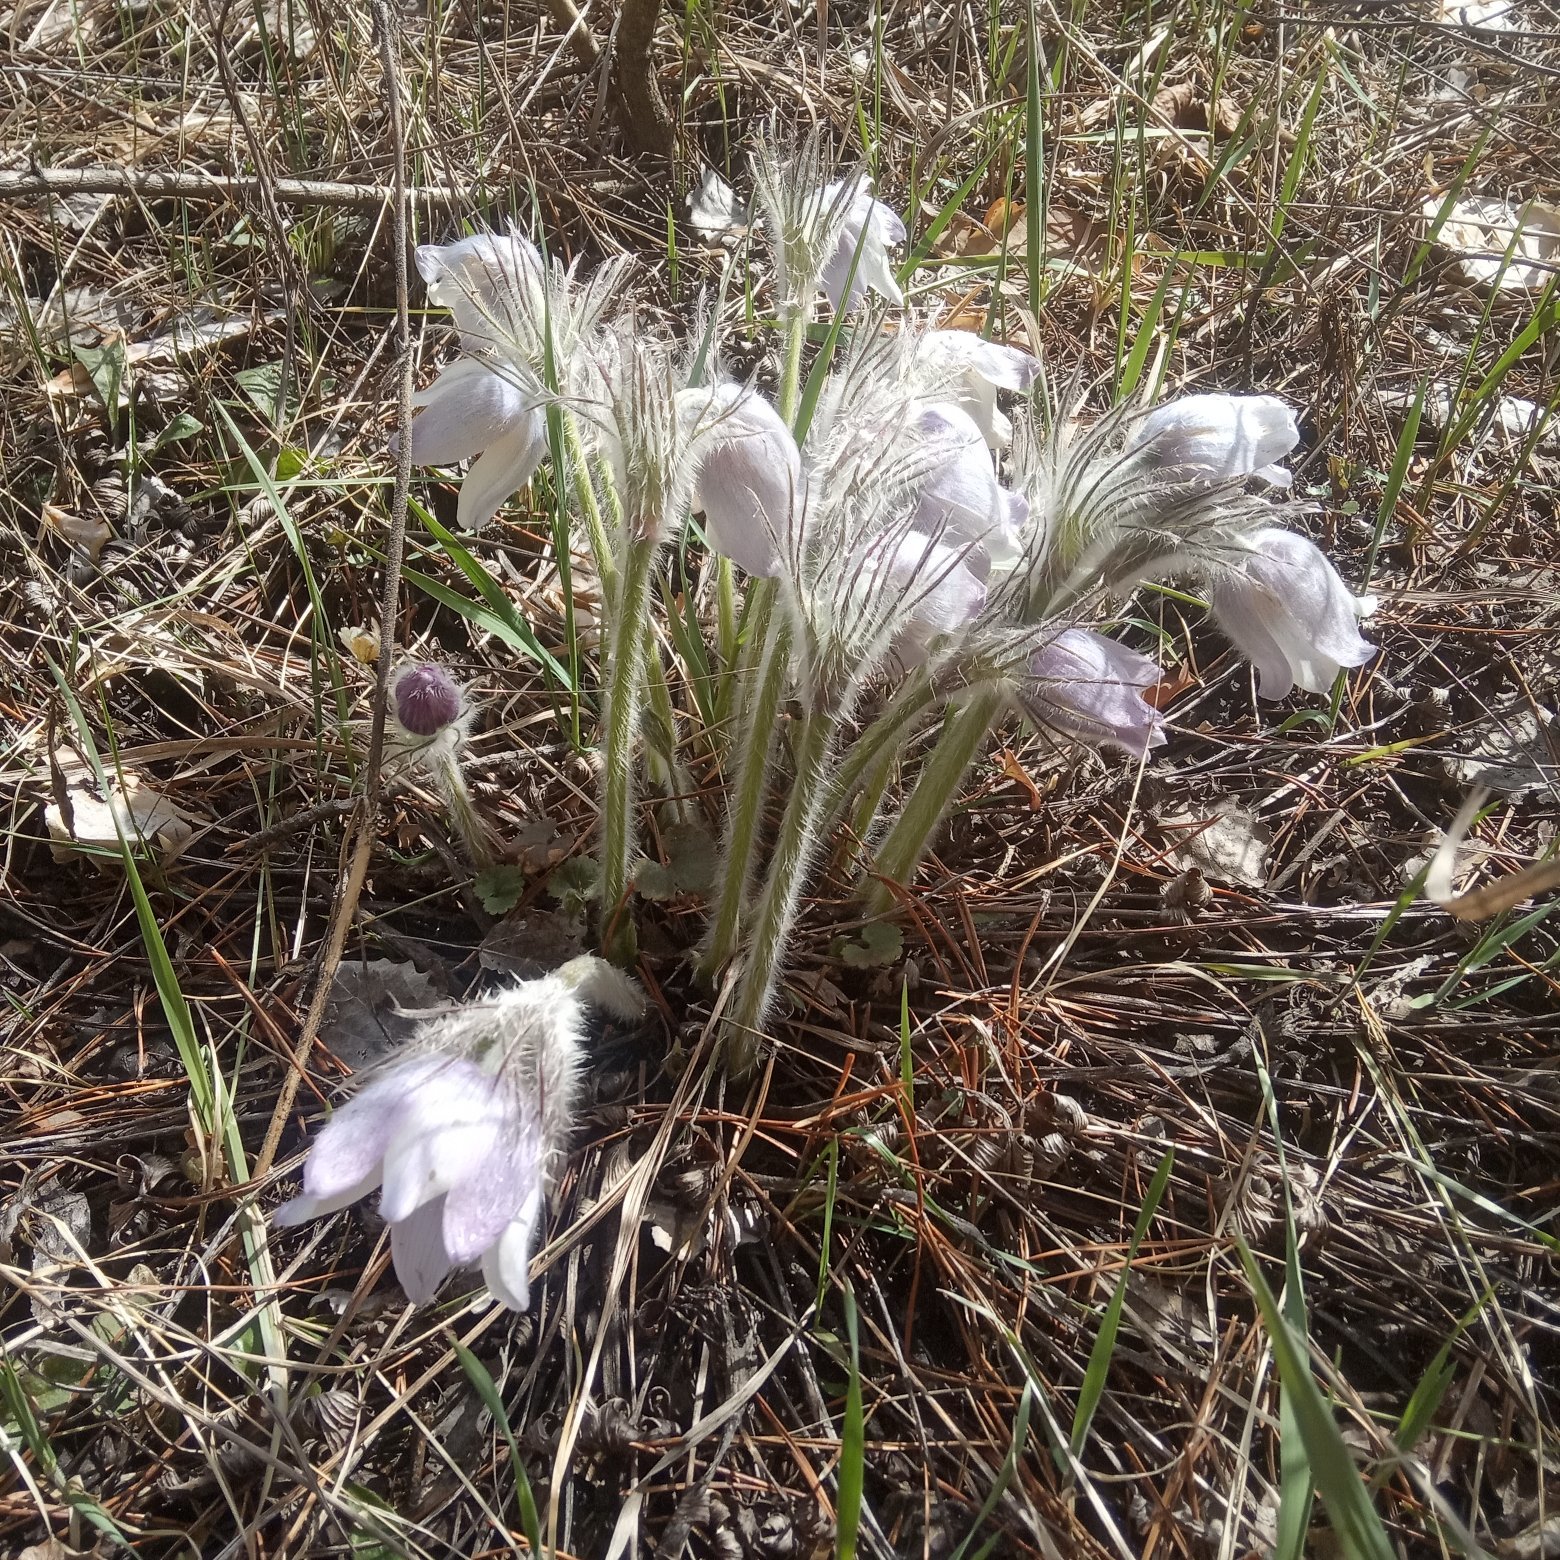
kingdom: Plantae
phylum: Tracheophyta
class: Magnoliopsida
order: Ranunculales
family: Ranunculaceae
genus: Pulsatilla
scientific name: Pulsatilla patens
